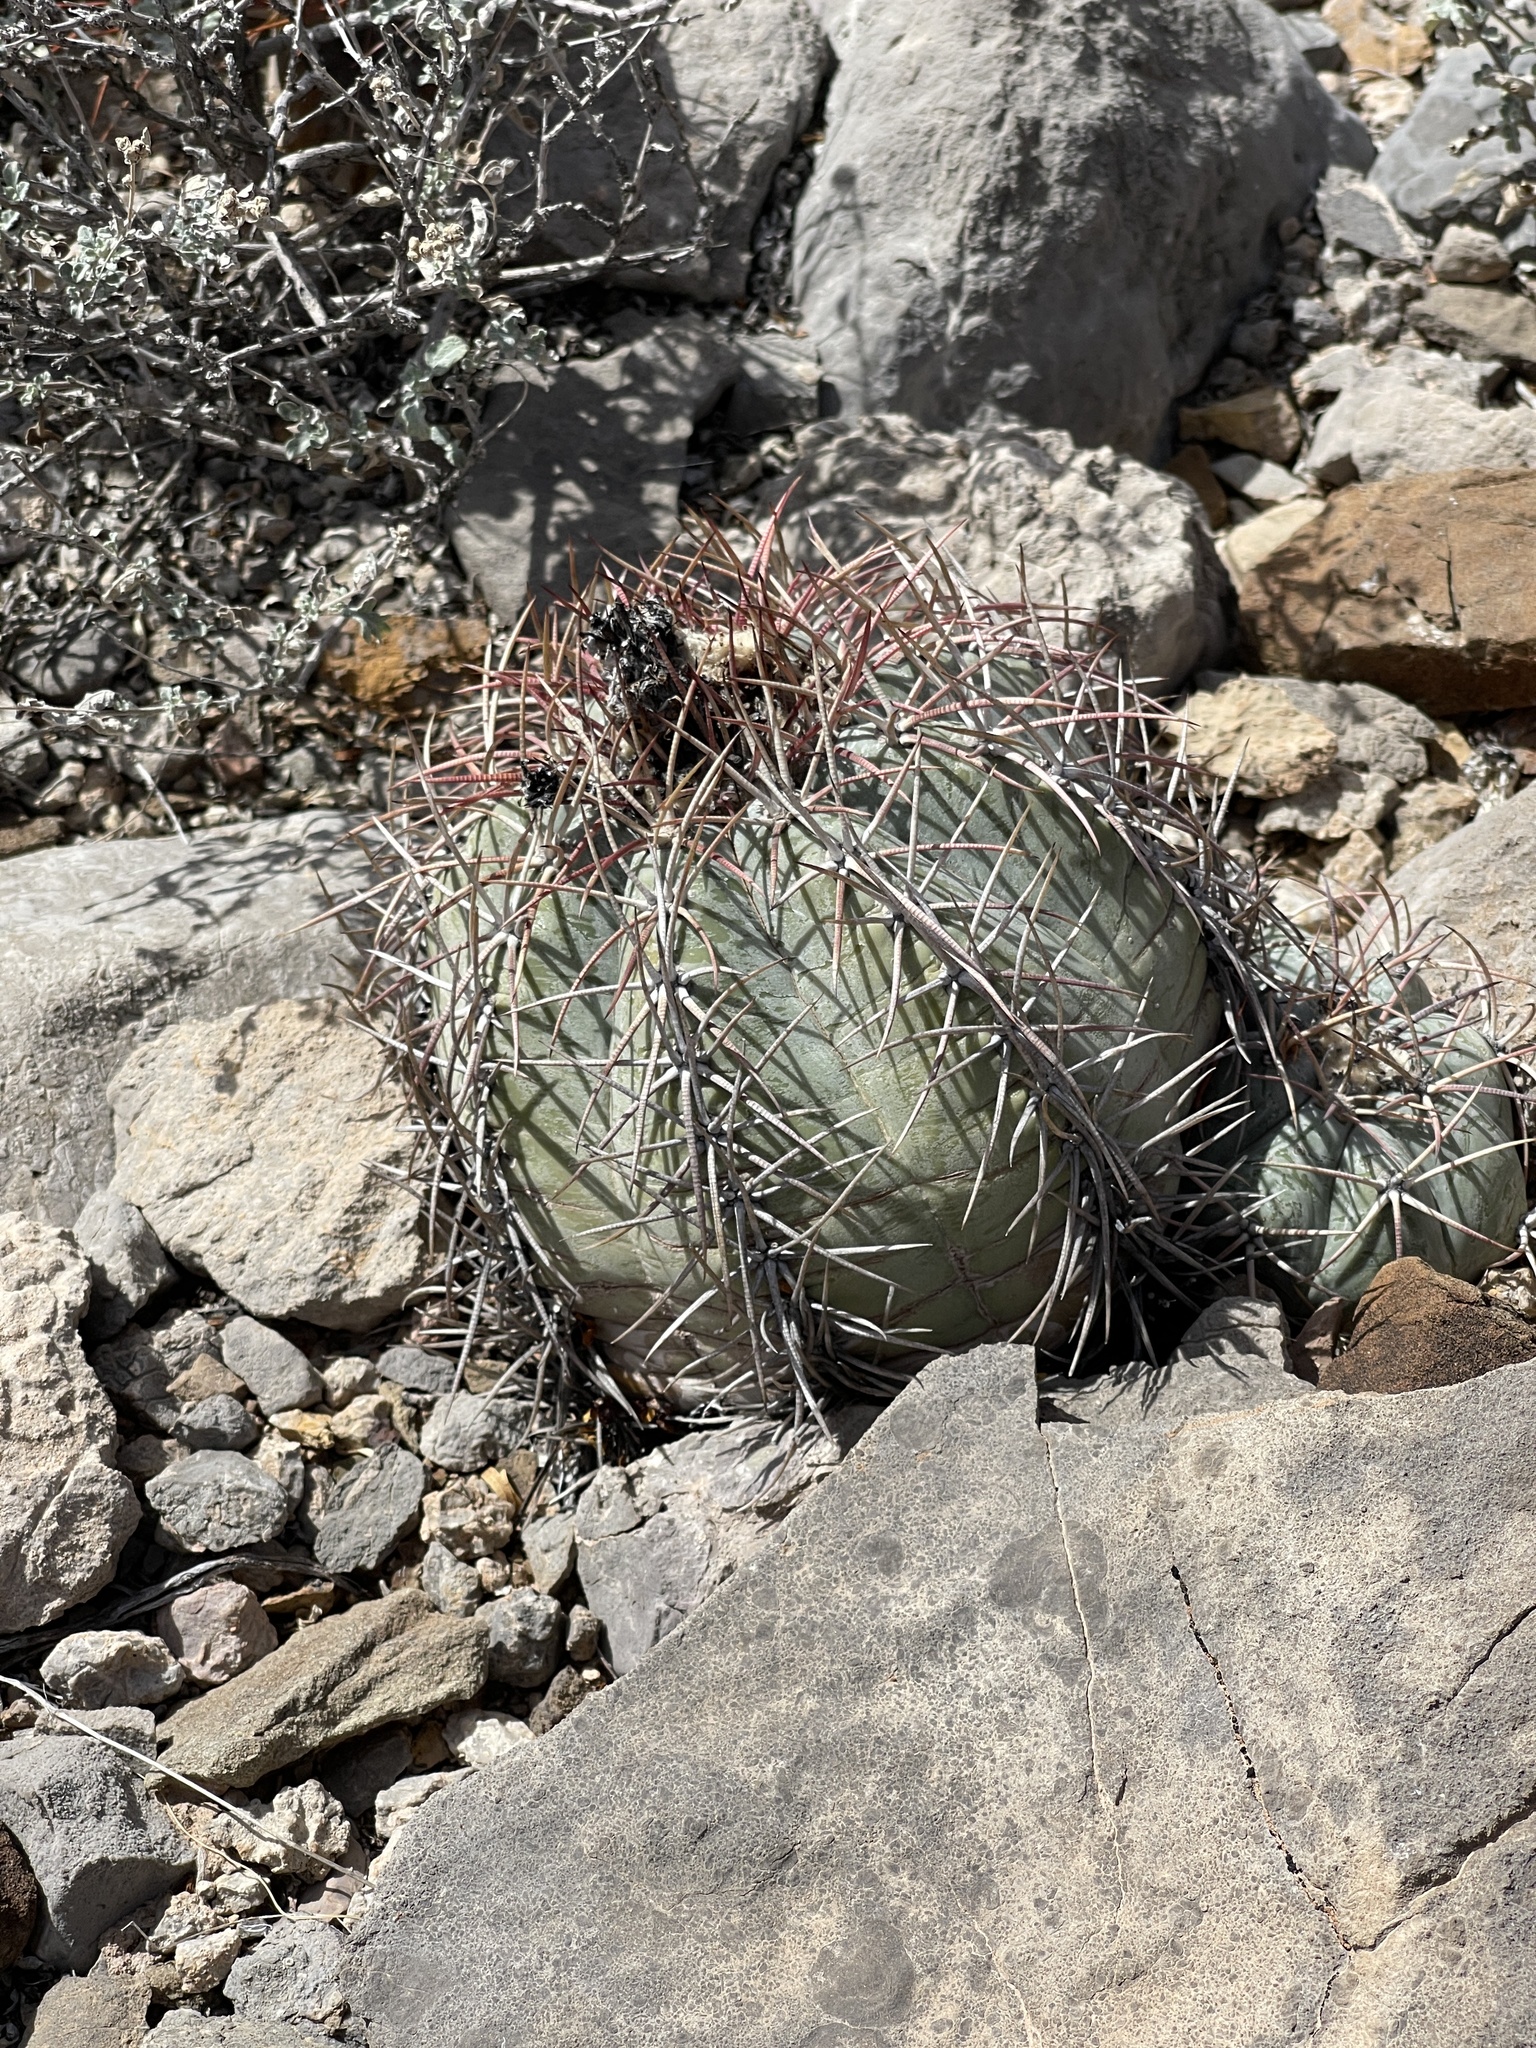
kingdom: Plantae
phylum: Tracheophyta
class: Magnoliopsida
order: Caryophyllales
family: Cactaceae
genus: Echinocactus
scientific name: Echinocactus horizonthalonius
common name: Devilshead
